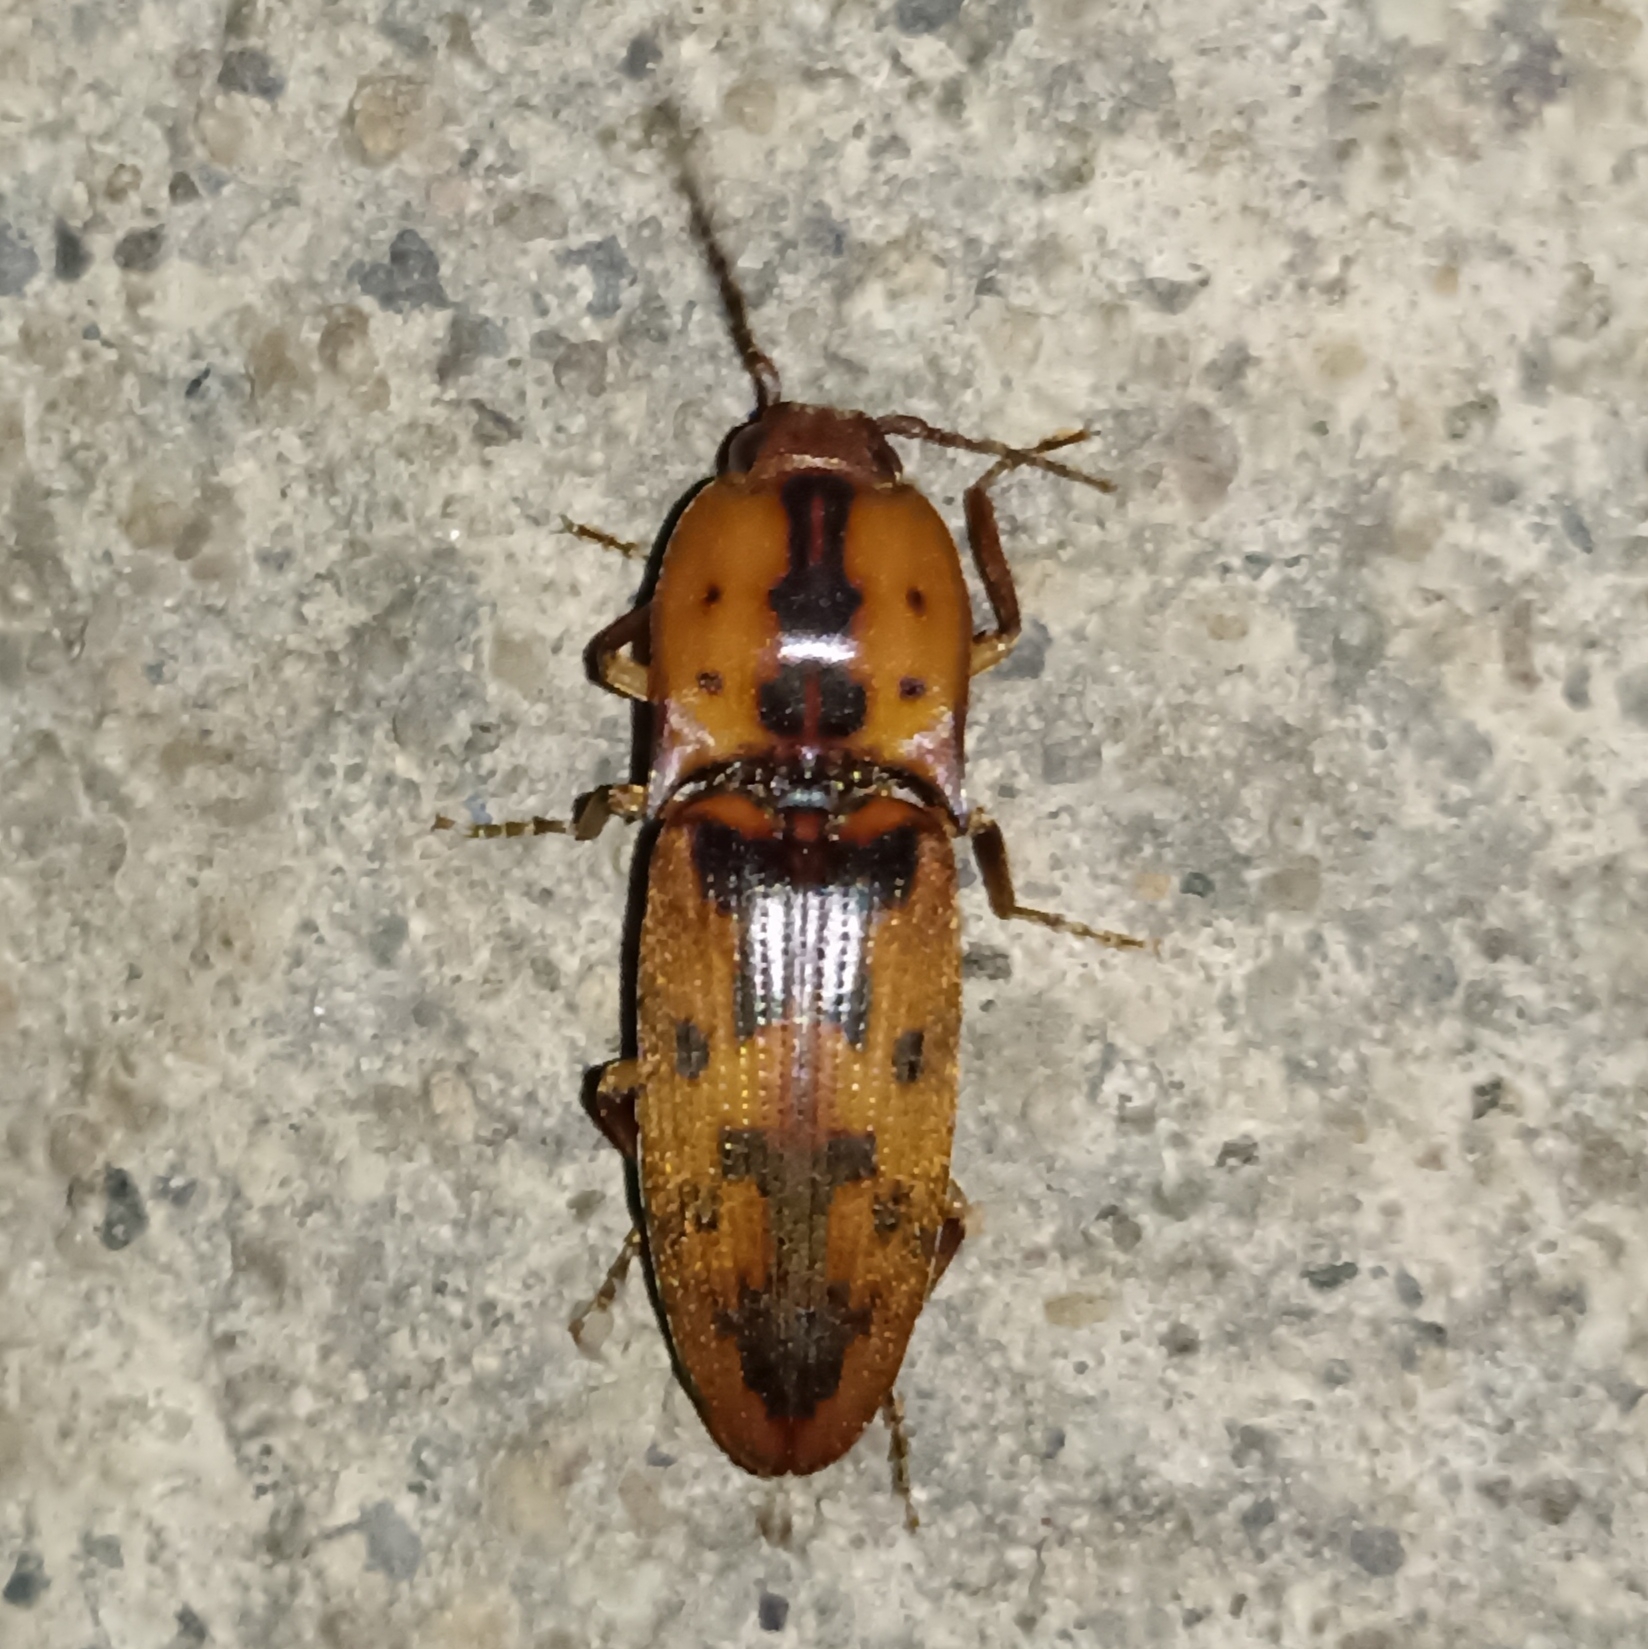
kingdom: Animalia
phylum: Arthropoda
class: Insecta
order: Coleoptera
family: Elateridae
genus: Monocrepidius
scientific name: Monocrepidius pilatei
